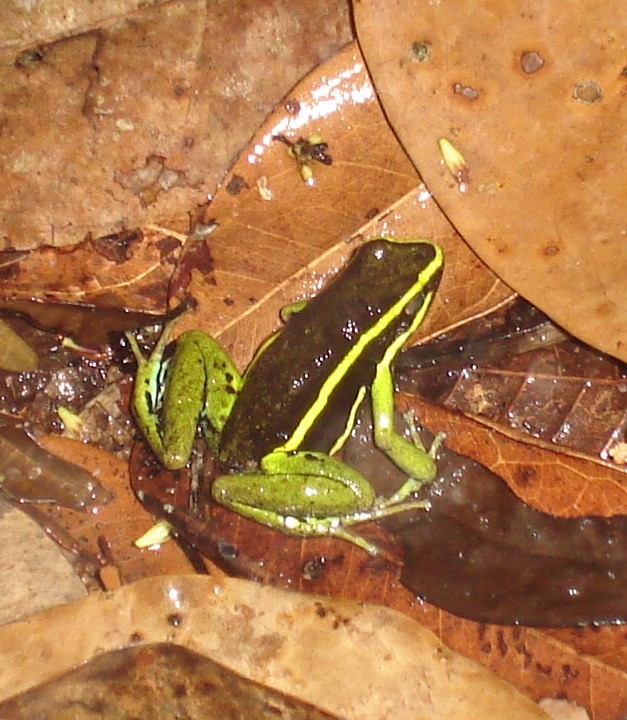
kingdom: Animalia
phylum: Chordata
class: Amphibia
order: Anura
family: Dendrobatidae
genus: Ameerega
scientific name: Ameerega trivittata
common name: Three-striped arrow-poison frog
